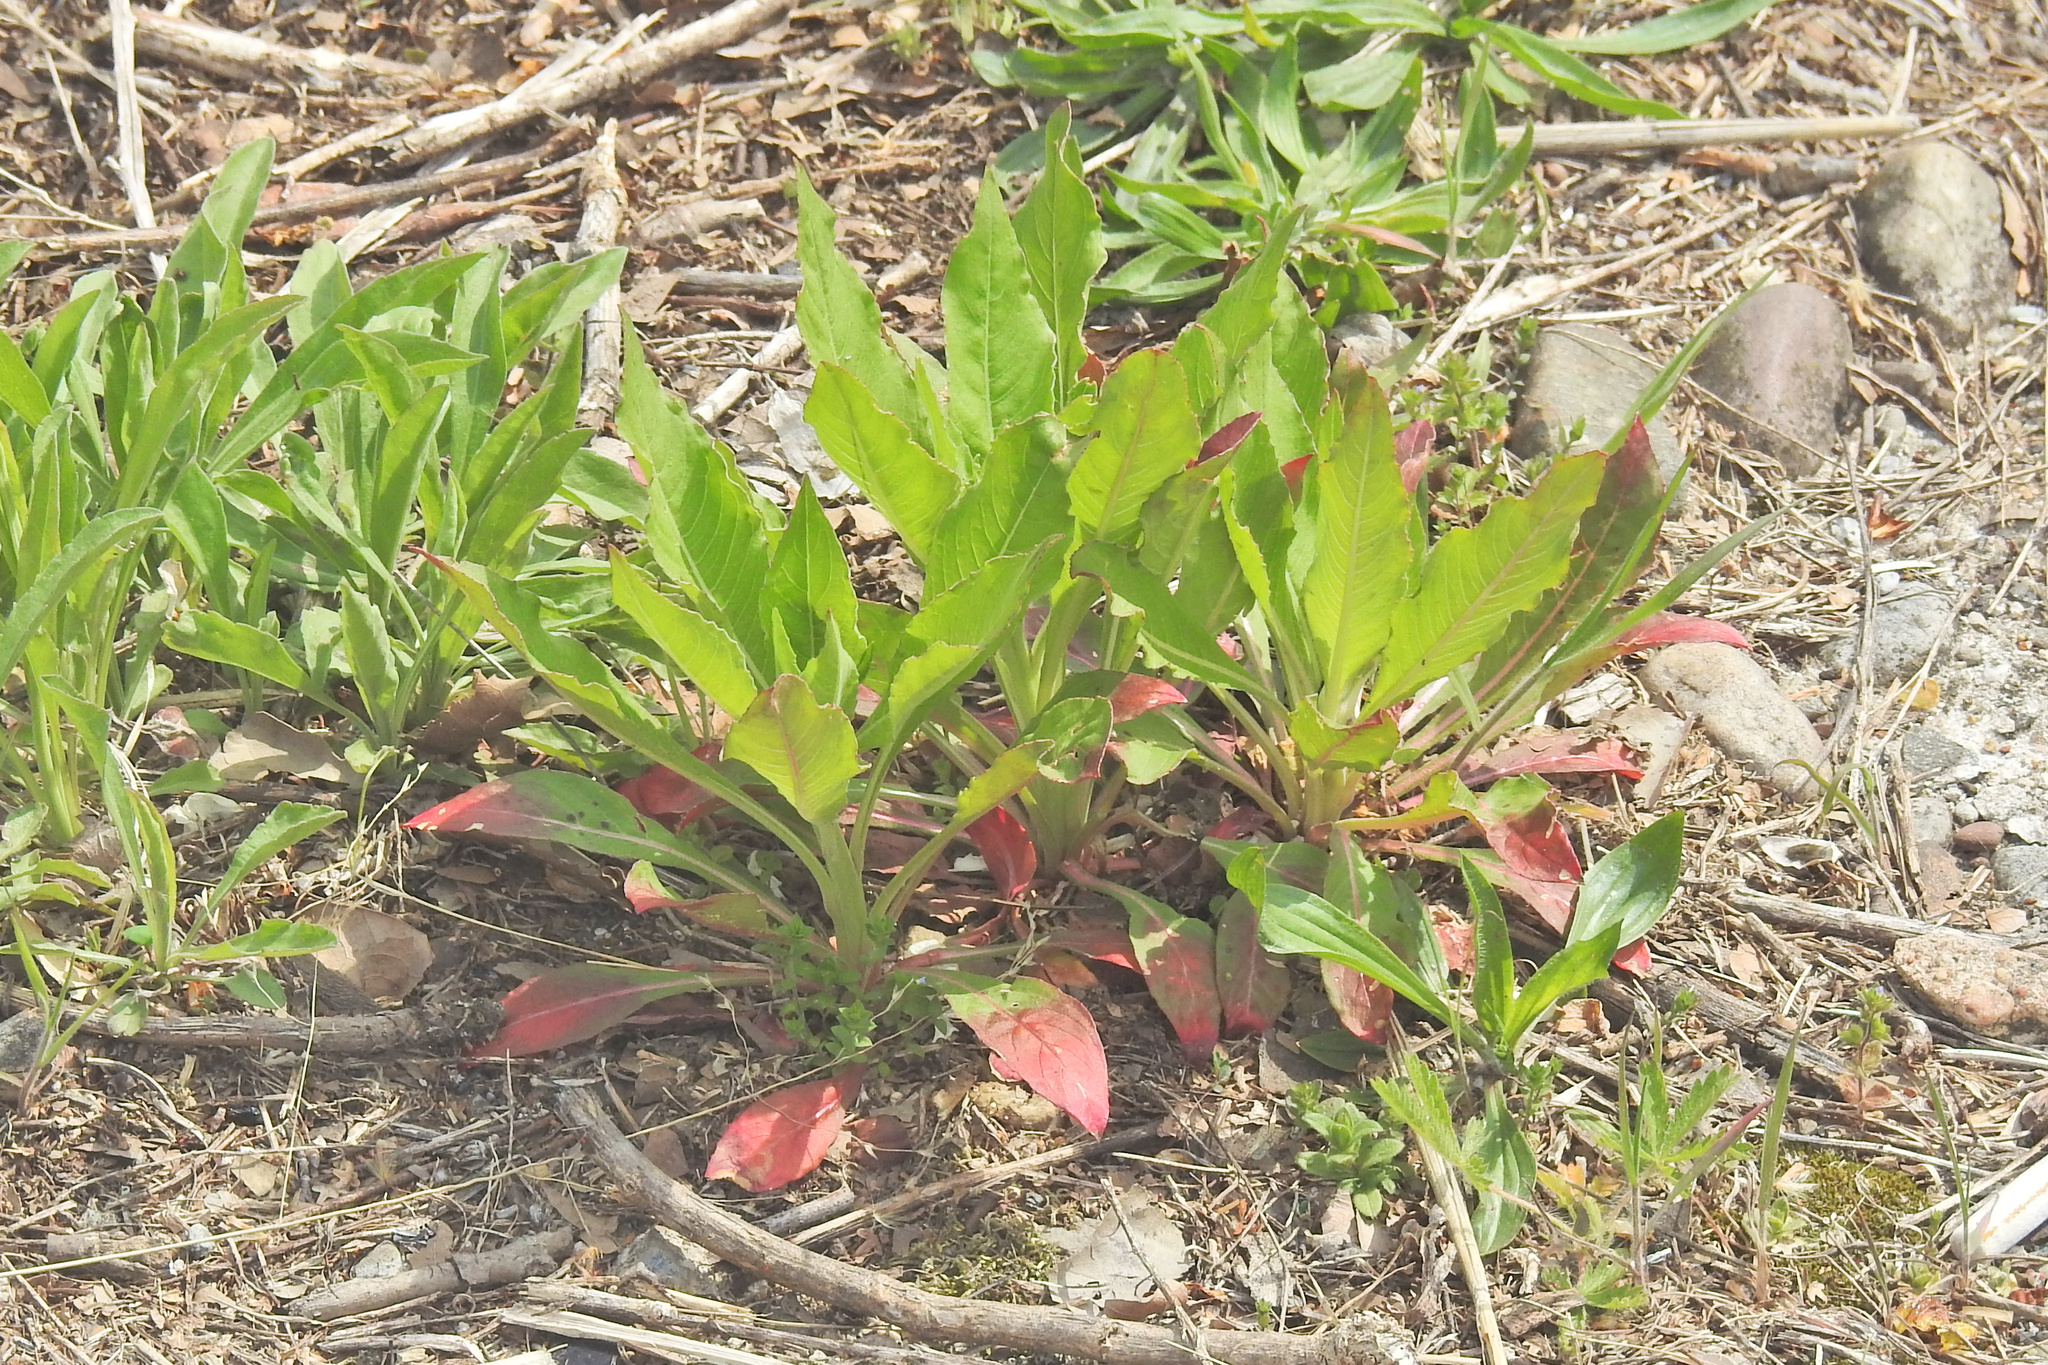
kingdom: Plantae
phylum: Tracheophyta
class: Magnoliopsida
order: Myrtales
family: Onagraceae
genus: Oenothera
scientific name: Oenothera biennis
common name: Common evening-primrose
